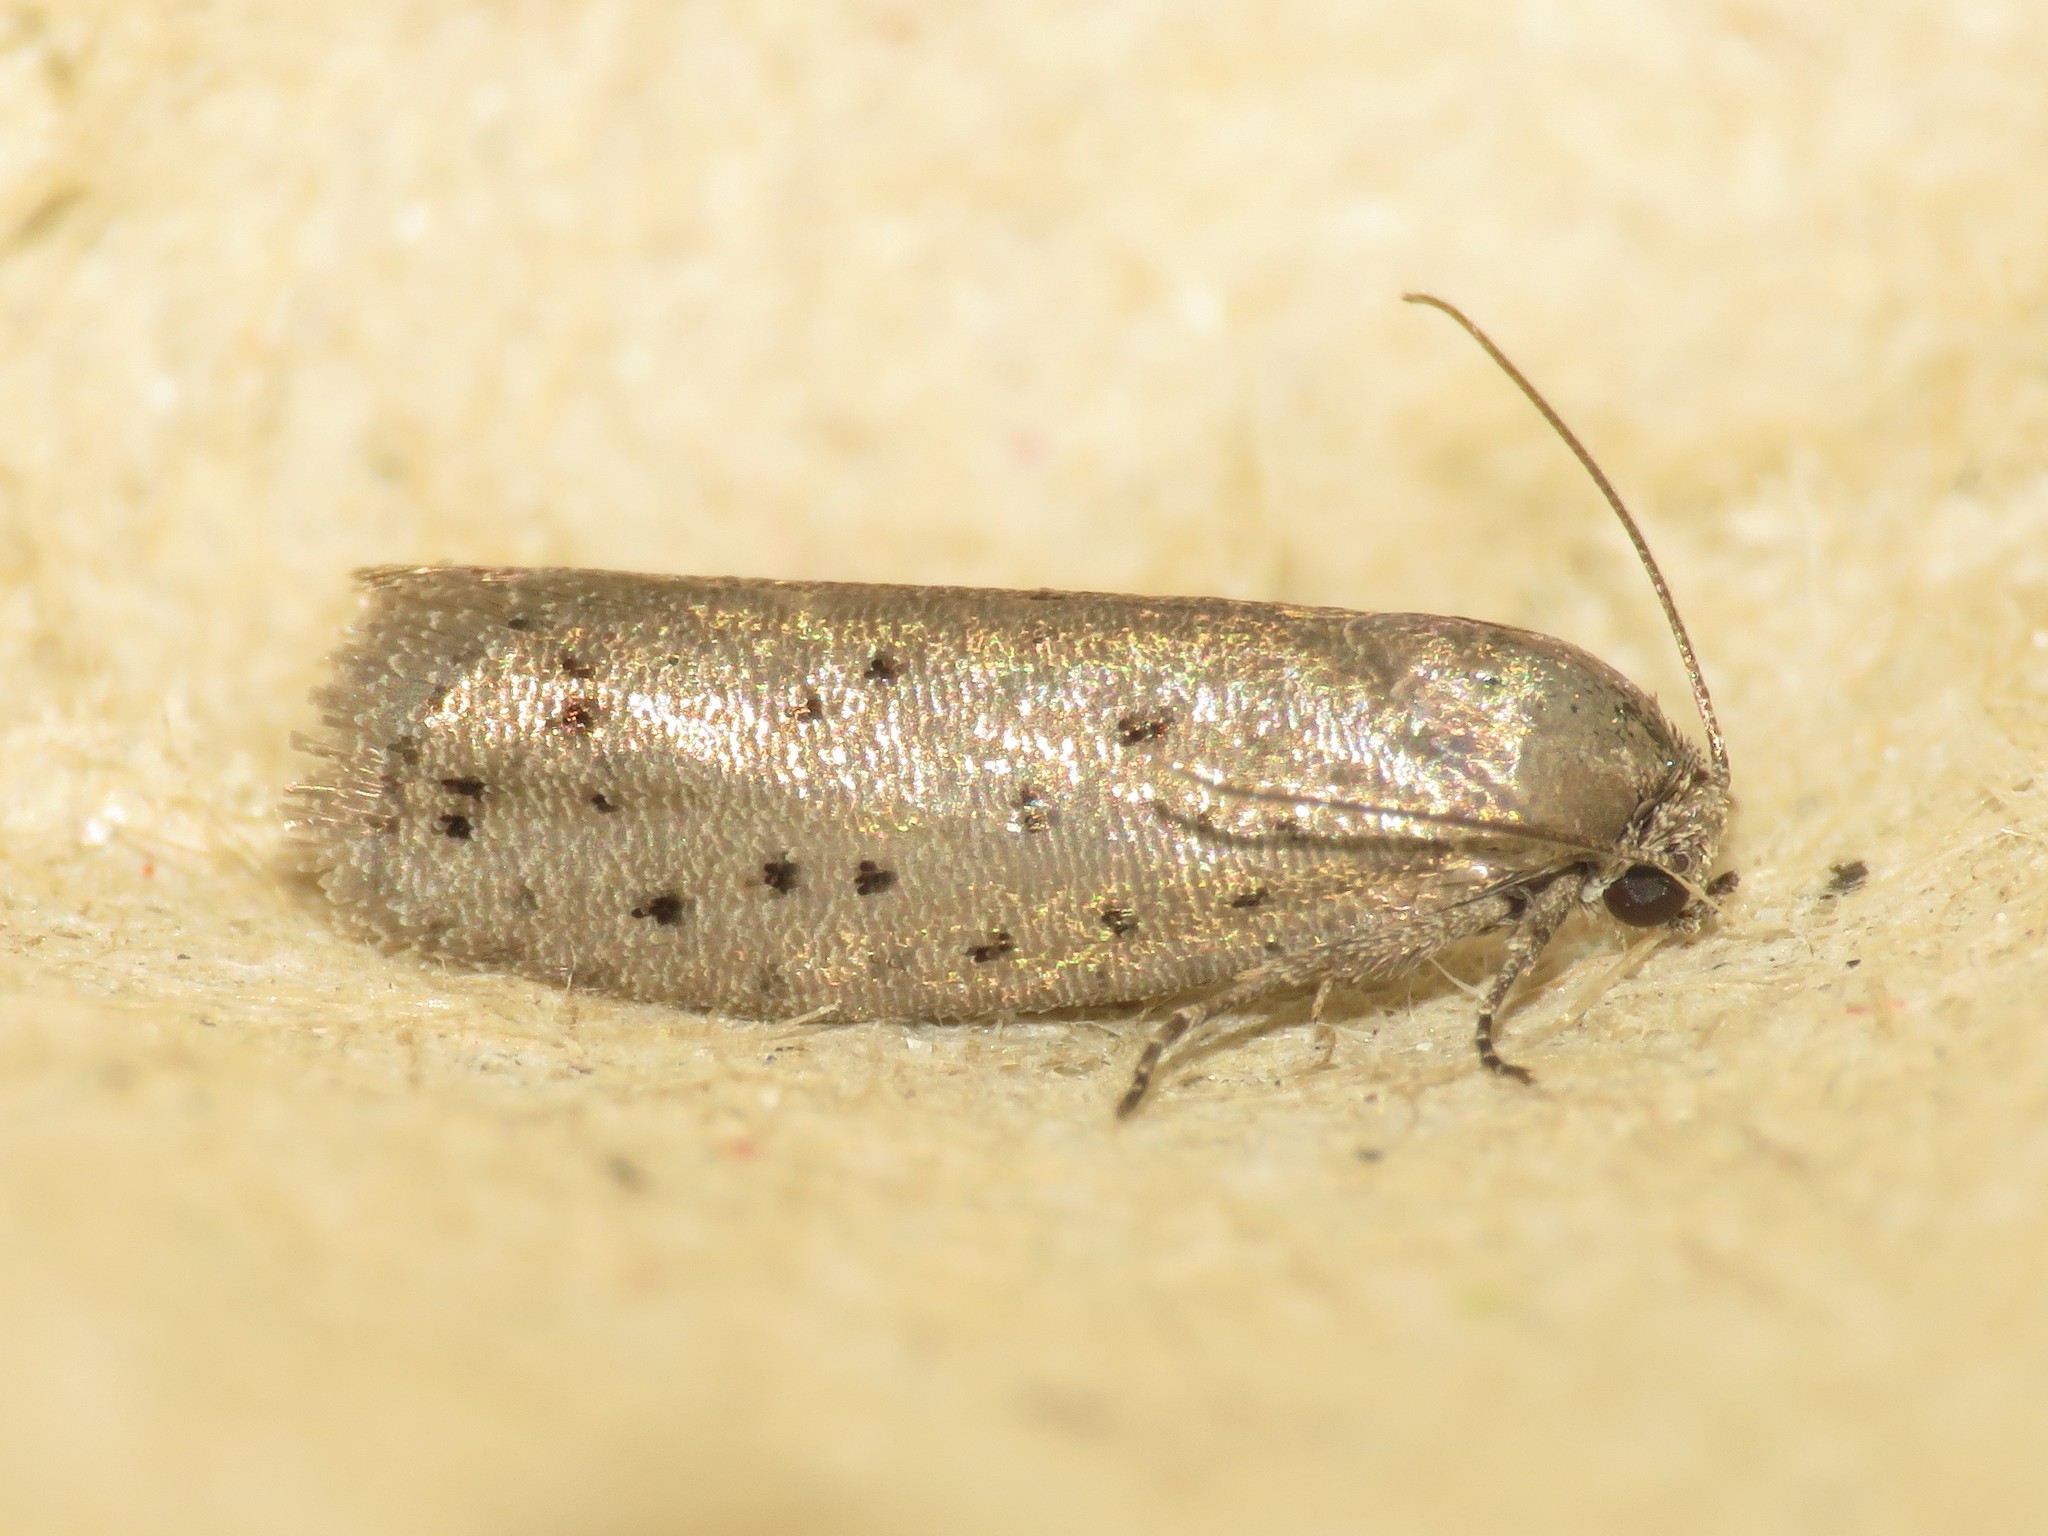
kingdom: Animalia
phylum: Arthropoda
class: Insecta
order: Lepidoptera
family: Galacticidae
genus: Homadaula
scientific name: Homadaula anisocentra
